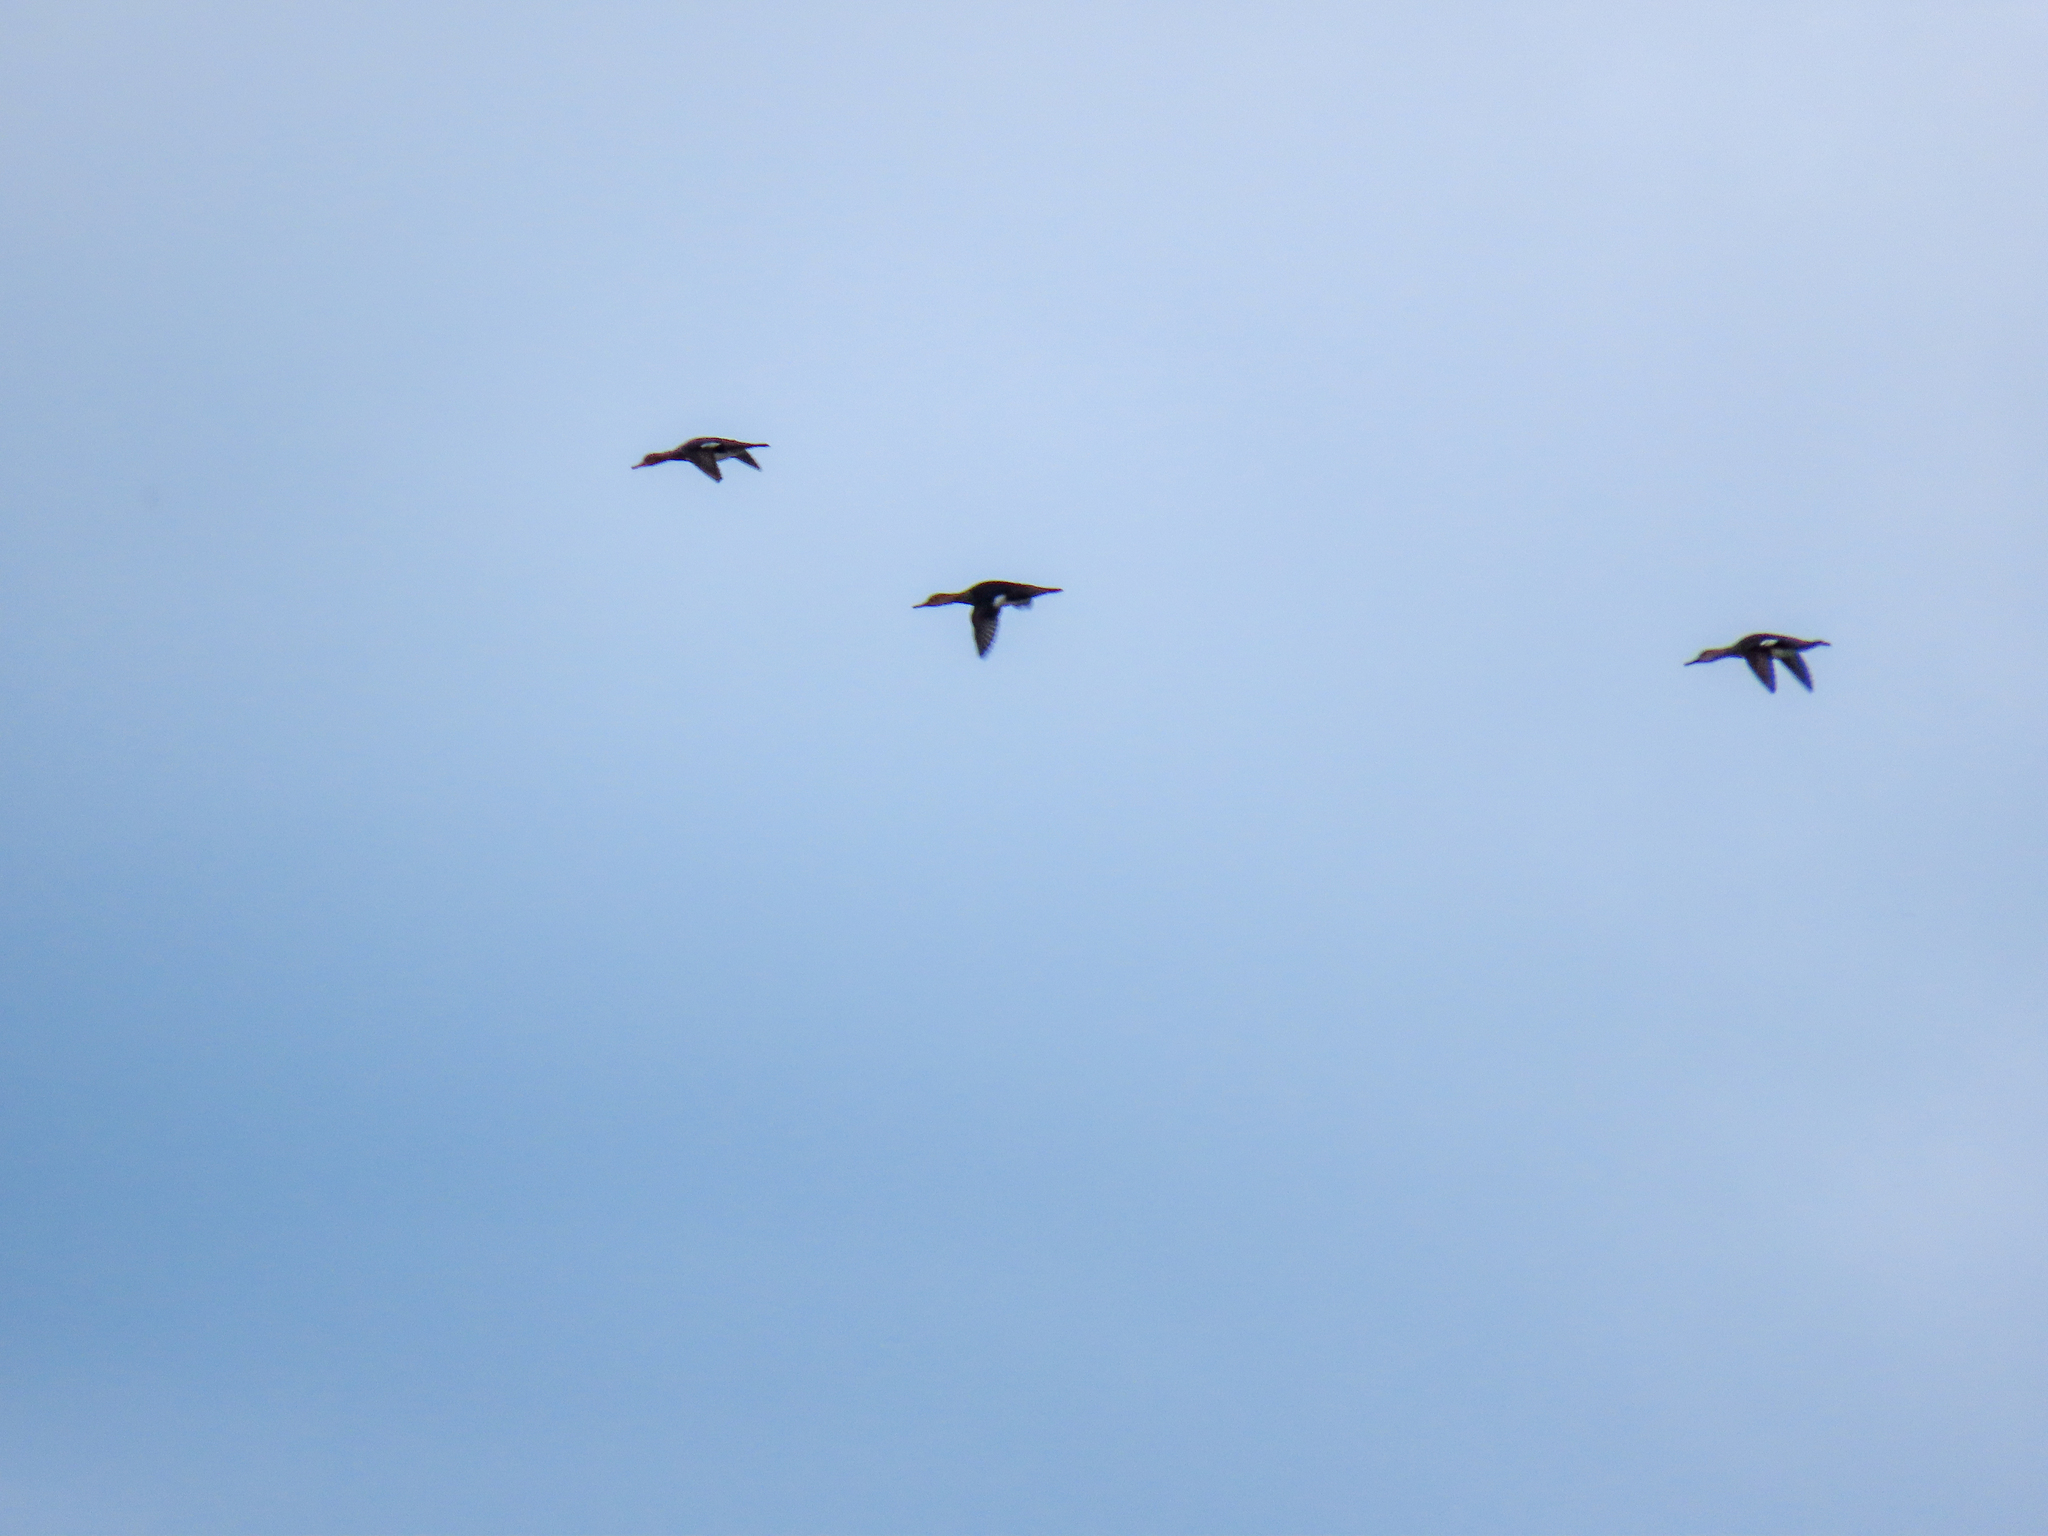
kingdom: Animalia
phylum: Chordata
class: Aves
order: Anseriformes
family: Anatidae
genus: Mergus
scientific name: Mergus serrator
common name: Red-breasted merganser
